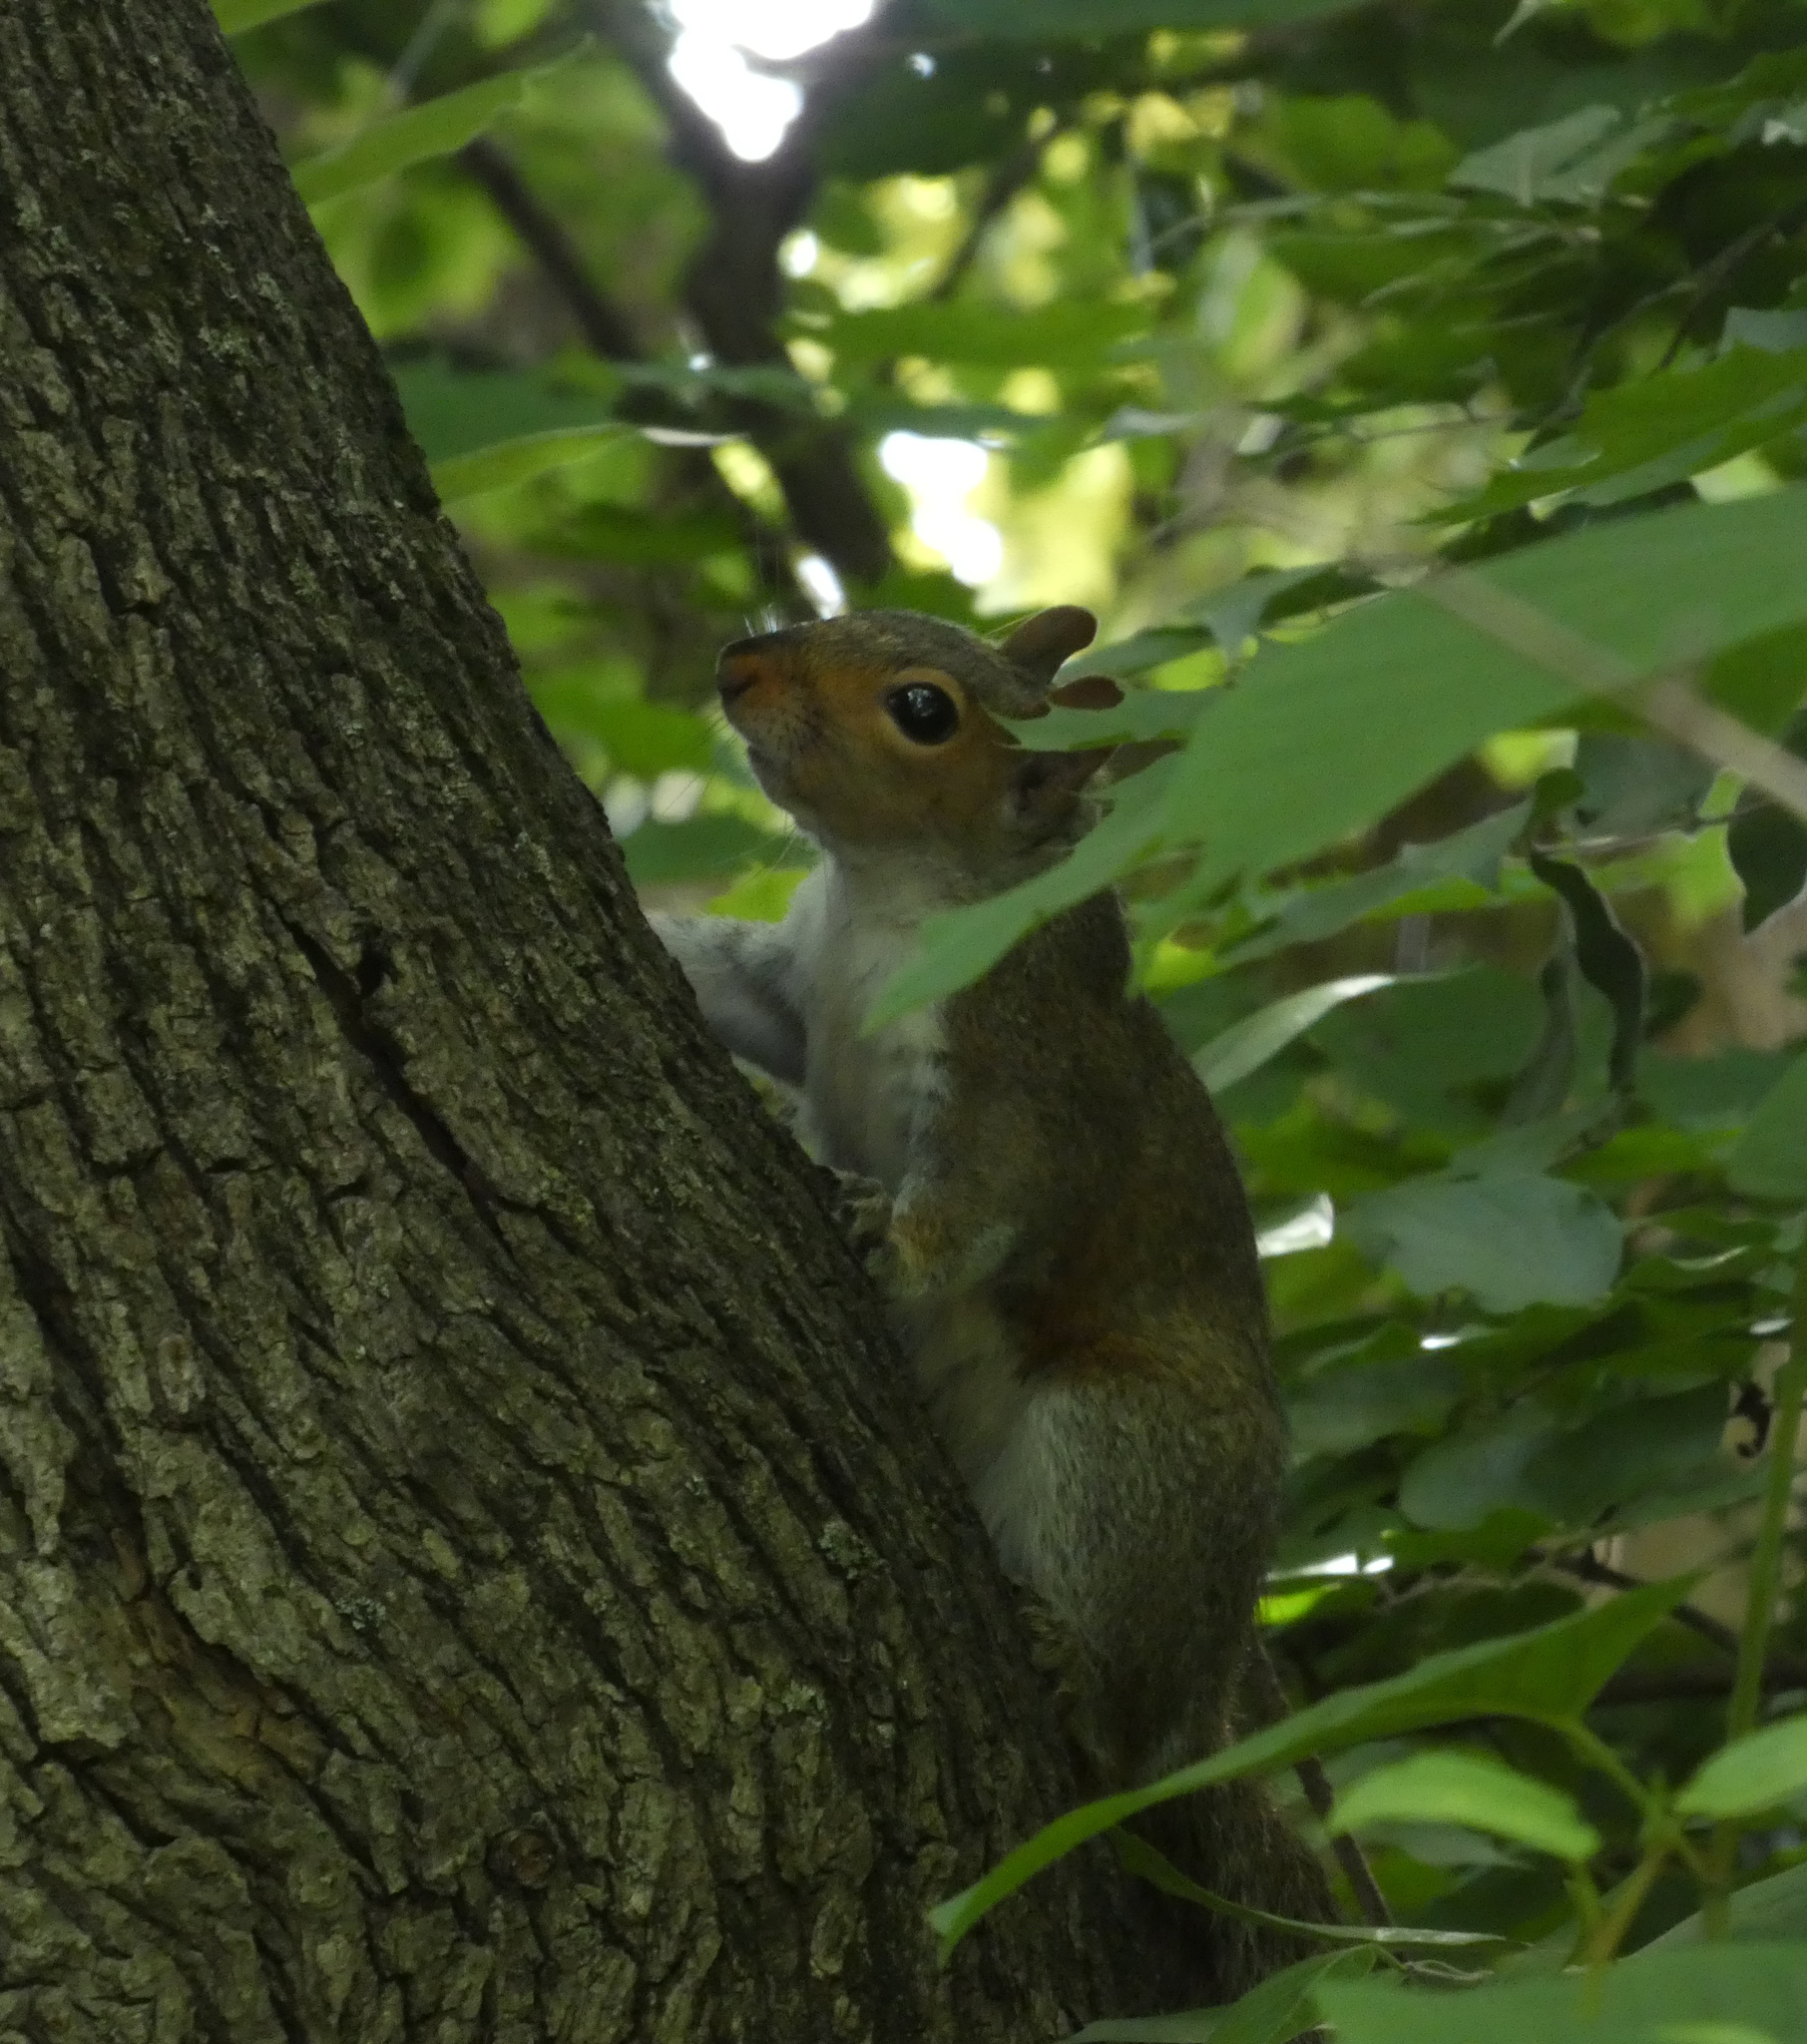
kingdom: Animalia
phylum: Chordata
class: Mammalia
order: Rodentia
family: Sciuridae
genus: Sciurus
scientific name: Sciurus carolinensis
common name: Eastern gray squirrel
